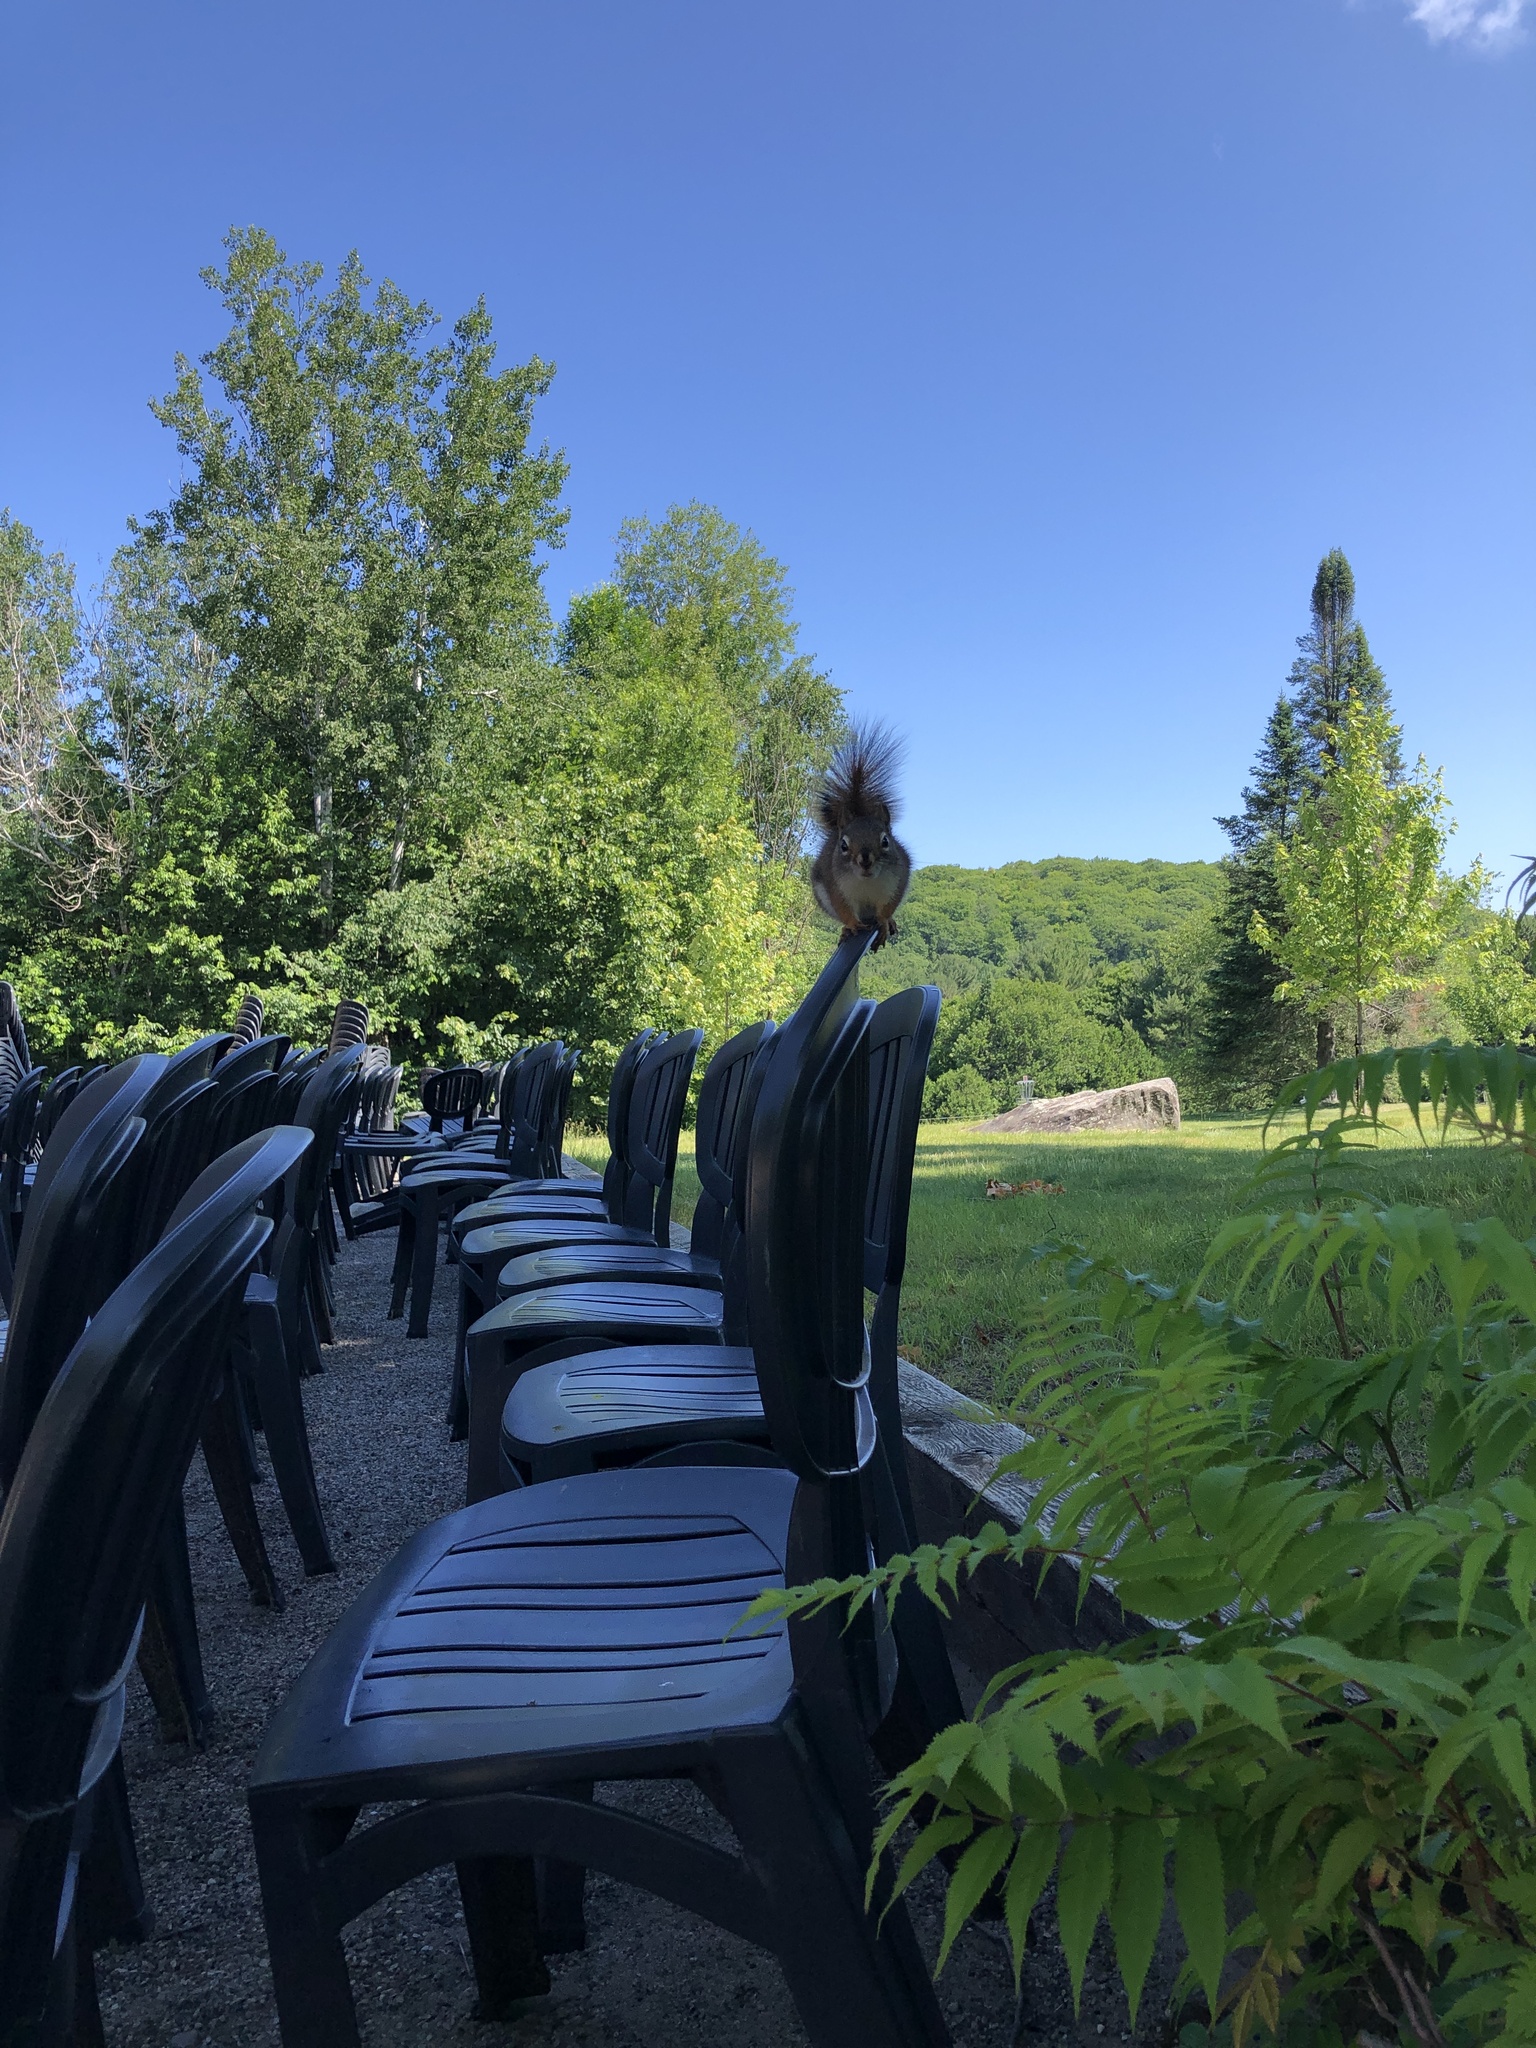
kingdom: Animalia
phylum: Chordata
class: Mammalia
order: Rodentia
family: Sciuridae
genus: Tamiasciurus
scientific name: Tamiasciurus hudsonicus
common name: Red squirrel
